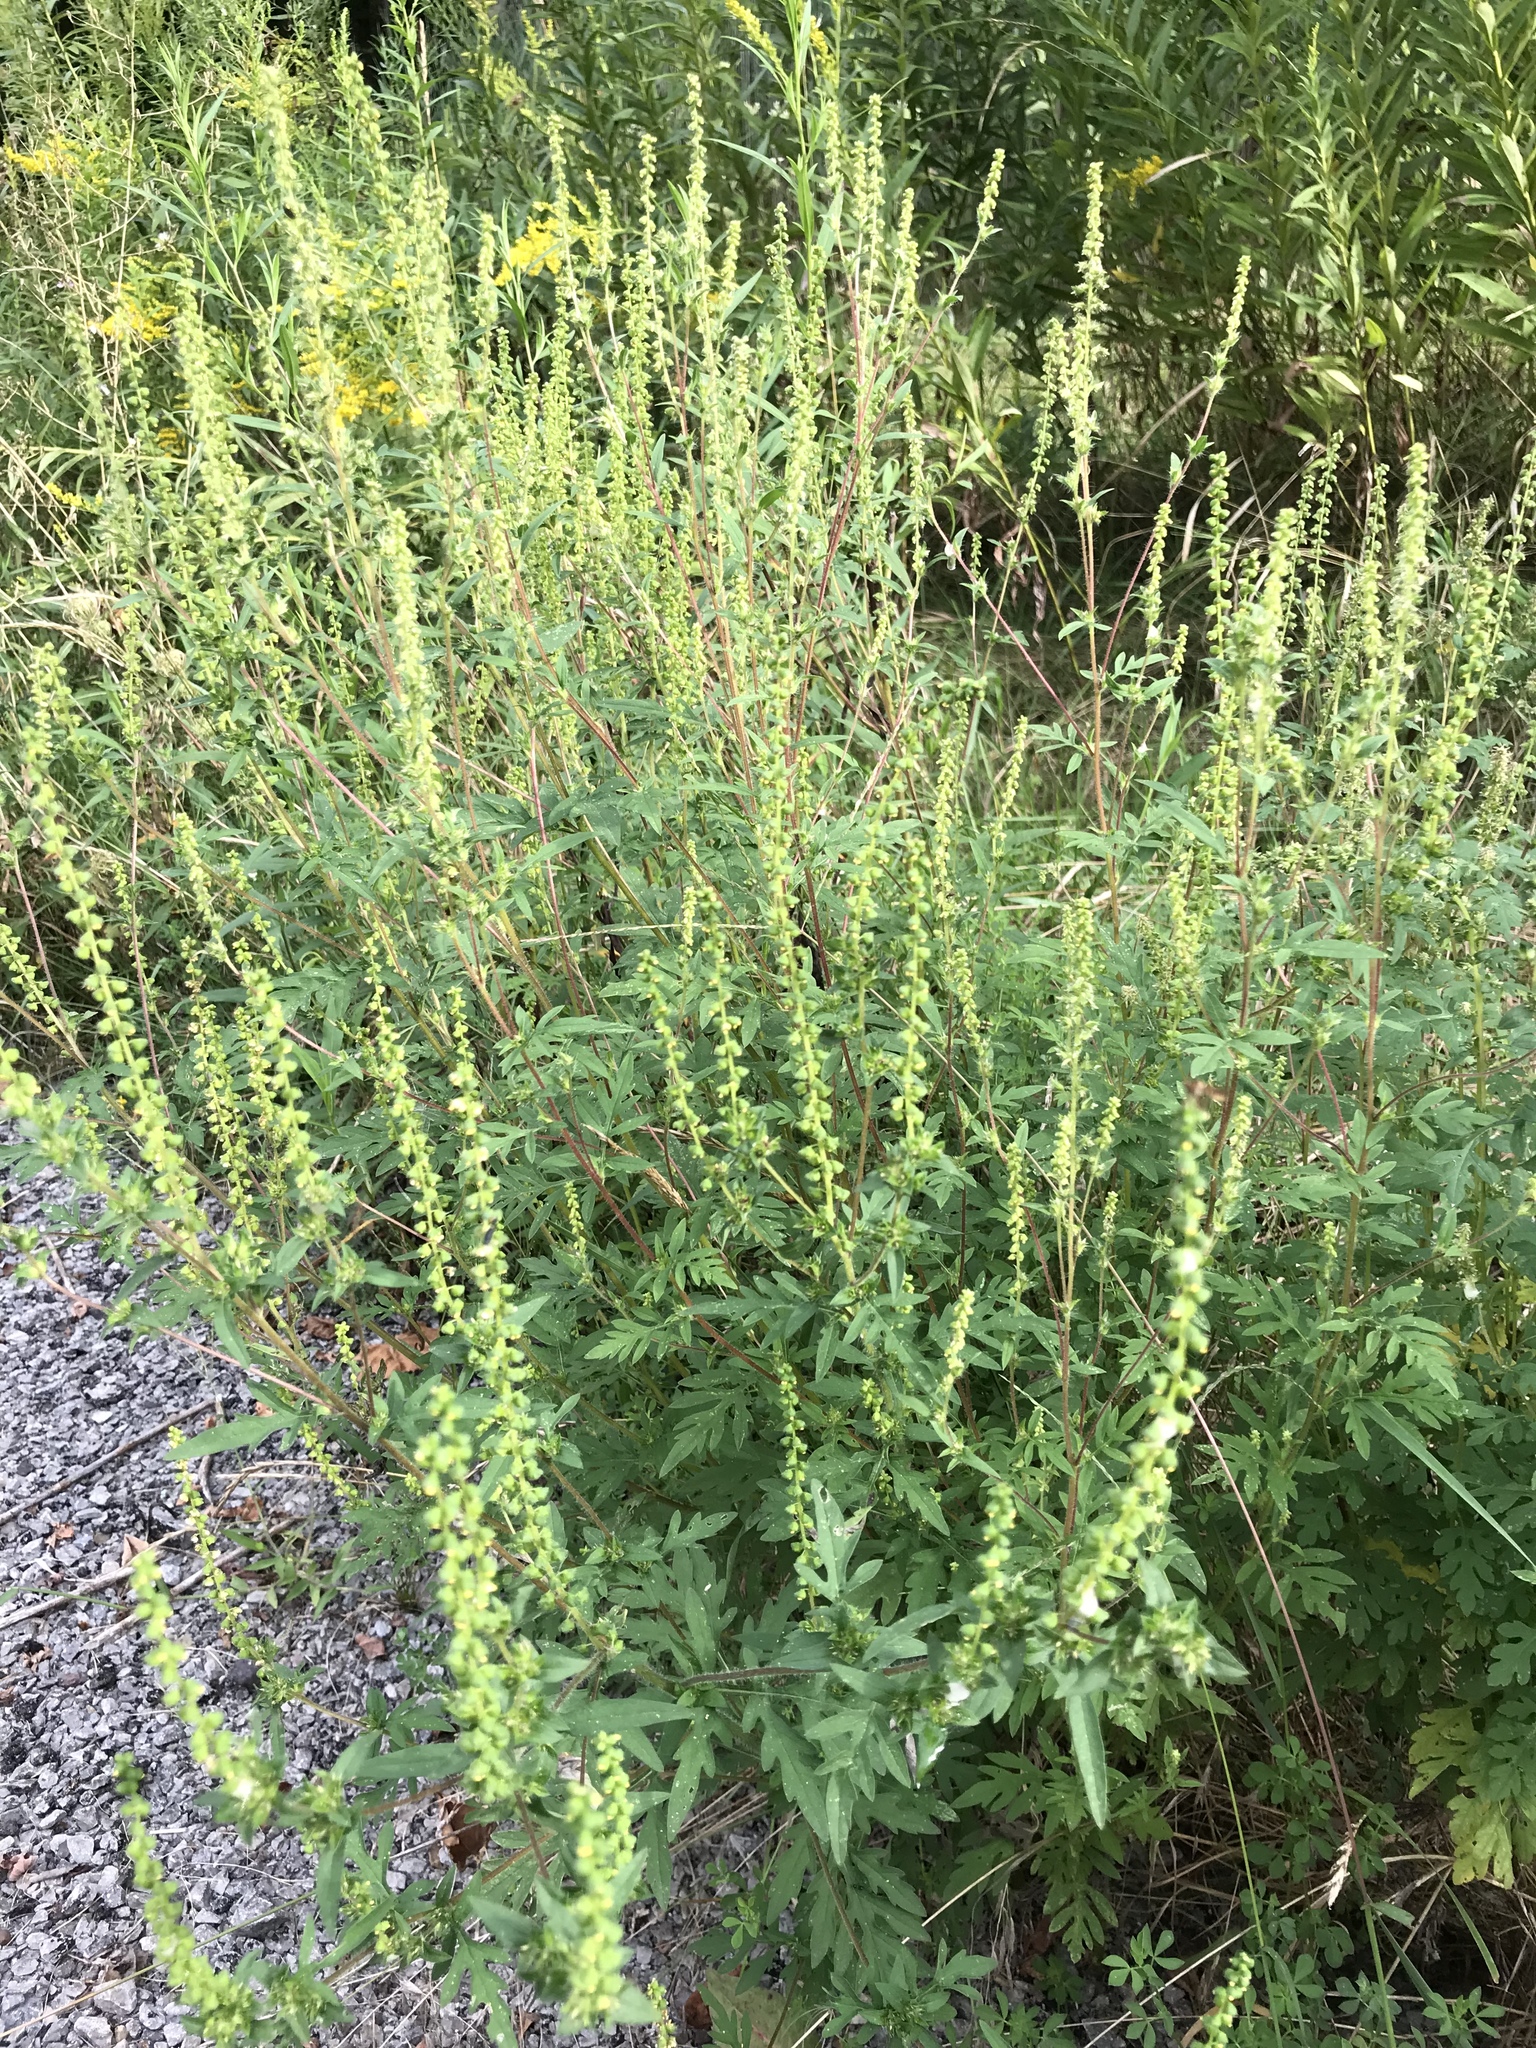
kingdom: Plantae
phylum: Tracheophyta
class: Magnoliopsida
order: Asterales
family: Asteraceae
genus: Ambrosia
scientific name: Ambrosia artemisiifolia
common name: Annual ragweed
